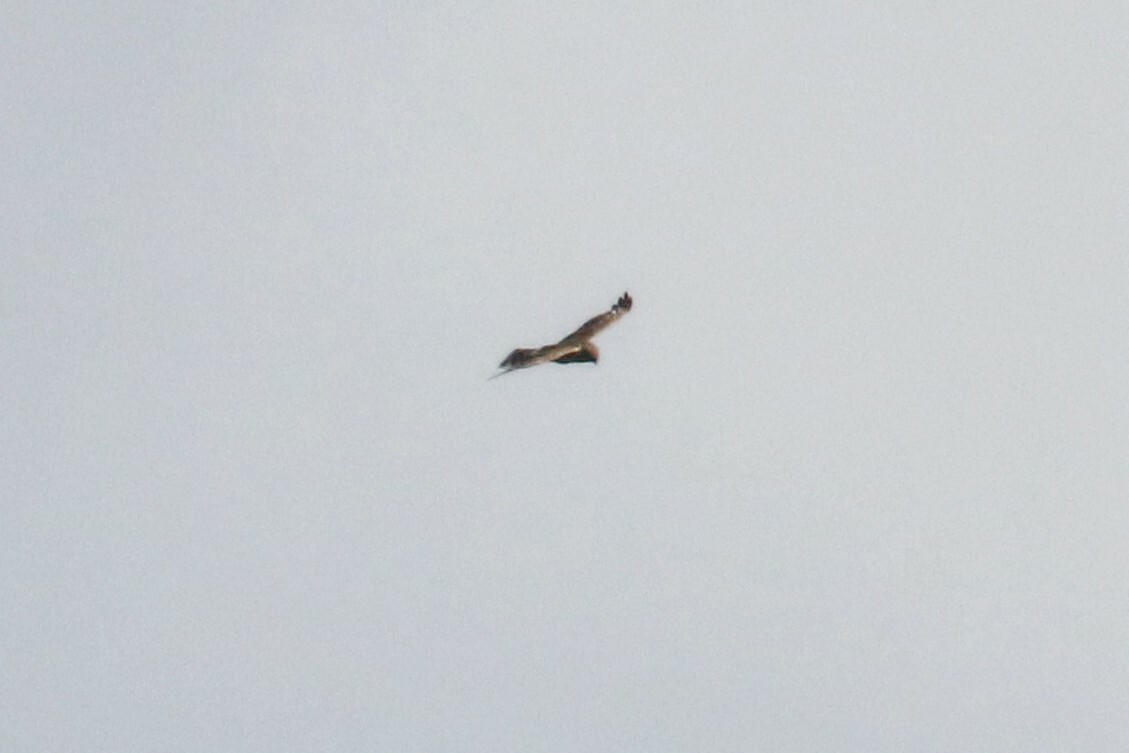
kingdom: Animalia
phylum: Chordata
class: Aves
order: Accipitriformes
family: Accipitridae
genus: Circus
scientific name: Circus cyaneus
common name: Hen harrier
